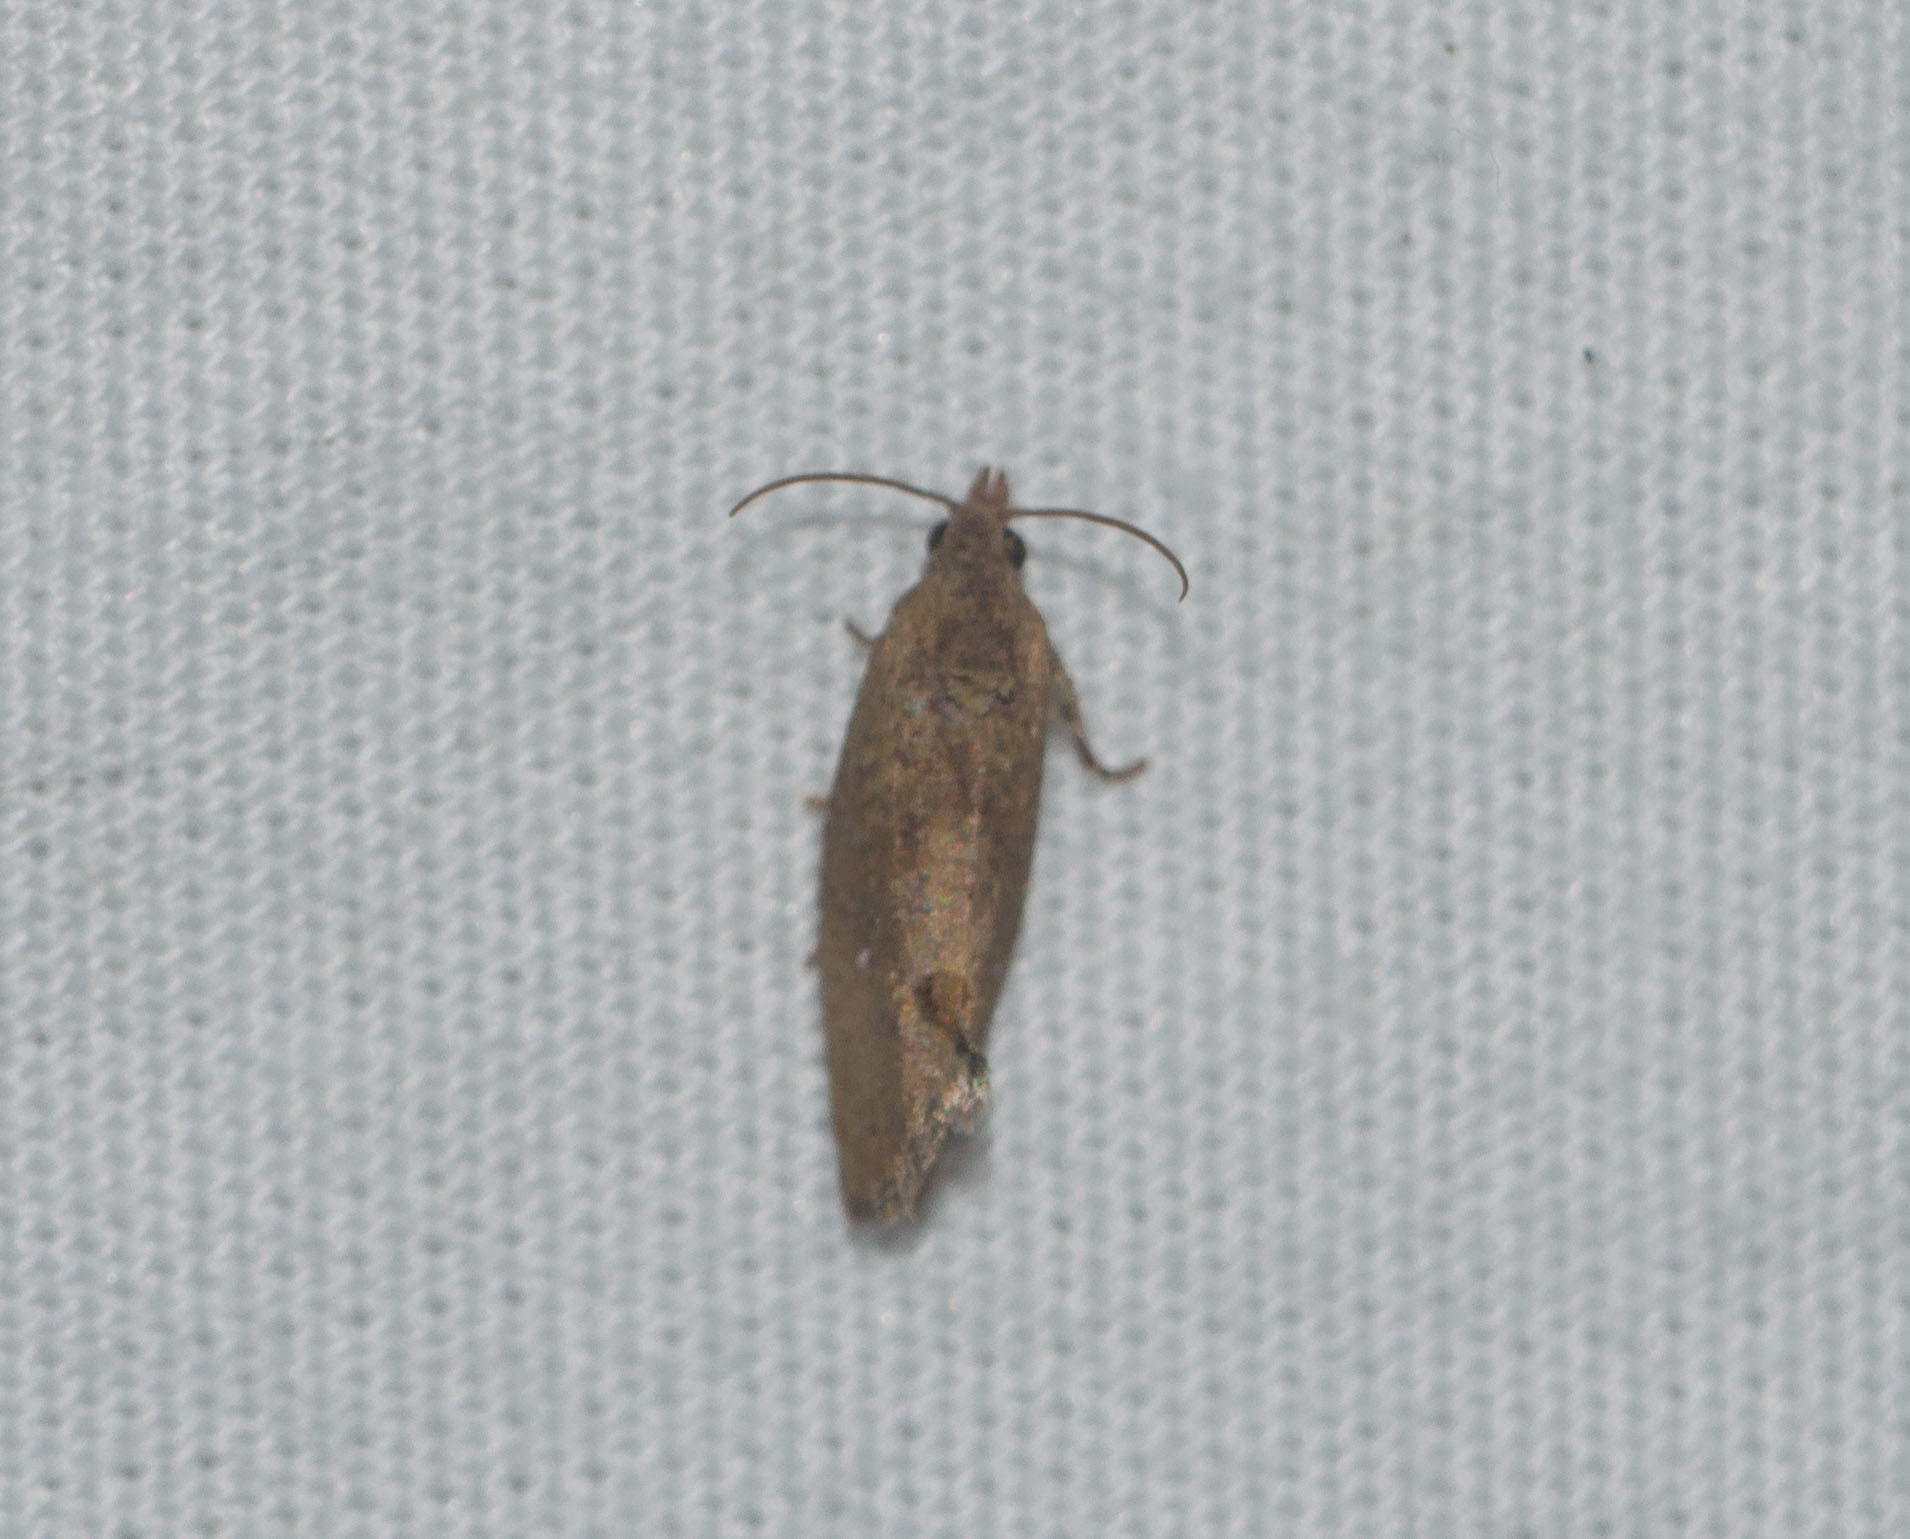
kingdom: Animalia
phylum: Arthropoda
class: Insecta
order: Lepidoptera
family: Tortricidae
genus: Cryptophlebia
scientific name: Cryptophlebia illepida
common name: Moth
